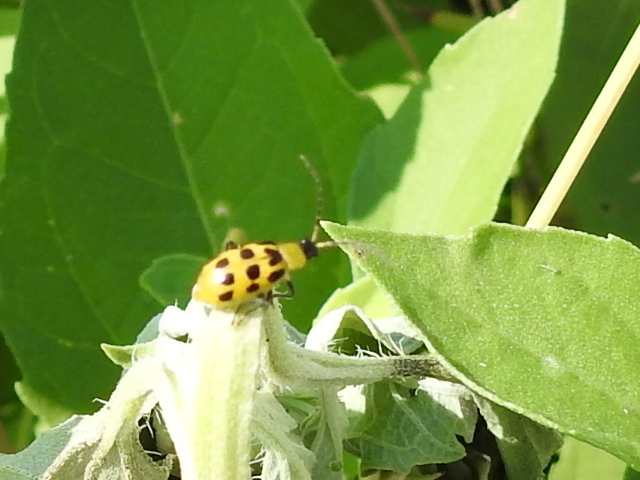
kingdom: Animalia
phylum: Arthropoda
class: Insecta
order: Coleoptera
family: Chrysomelidae
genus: Diabrotica
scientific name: Diabrotica undecimpunctata
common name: Spotted cucumber beetle
